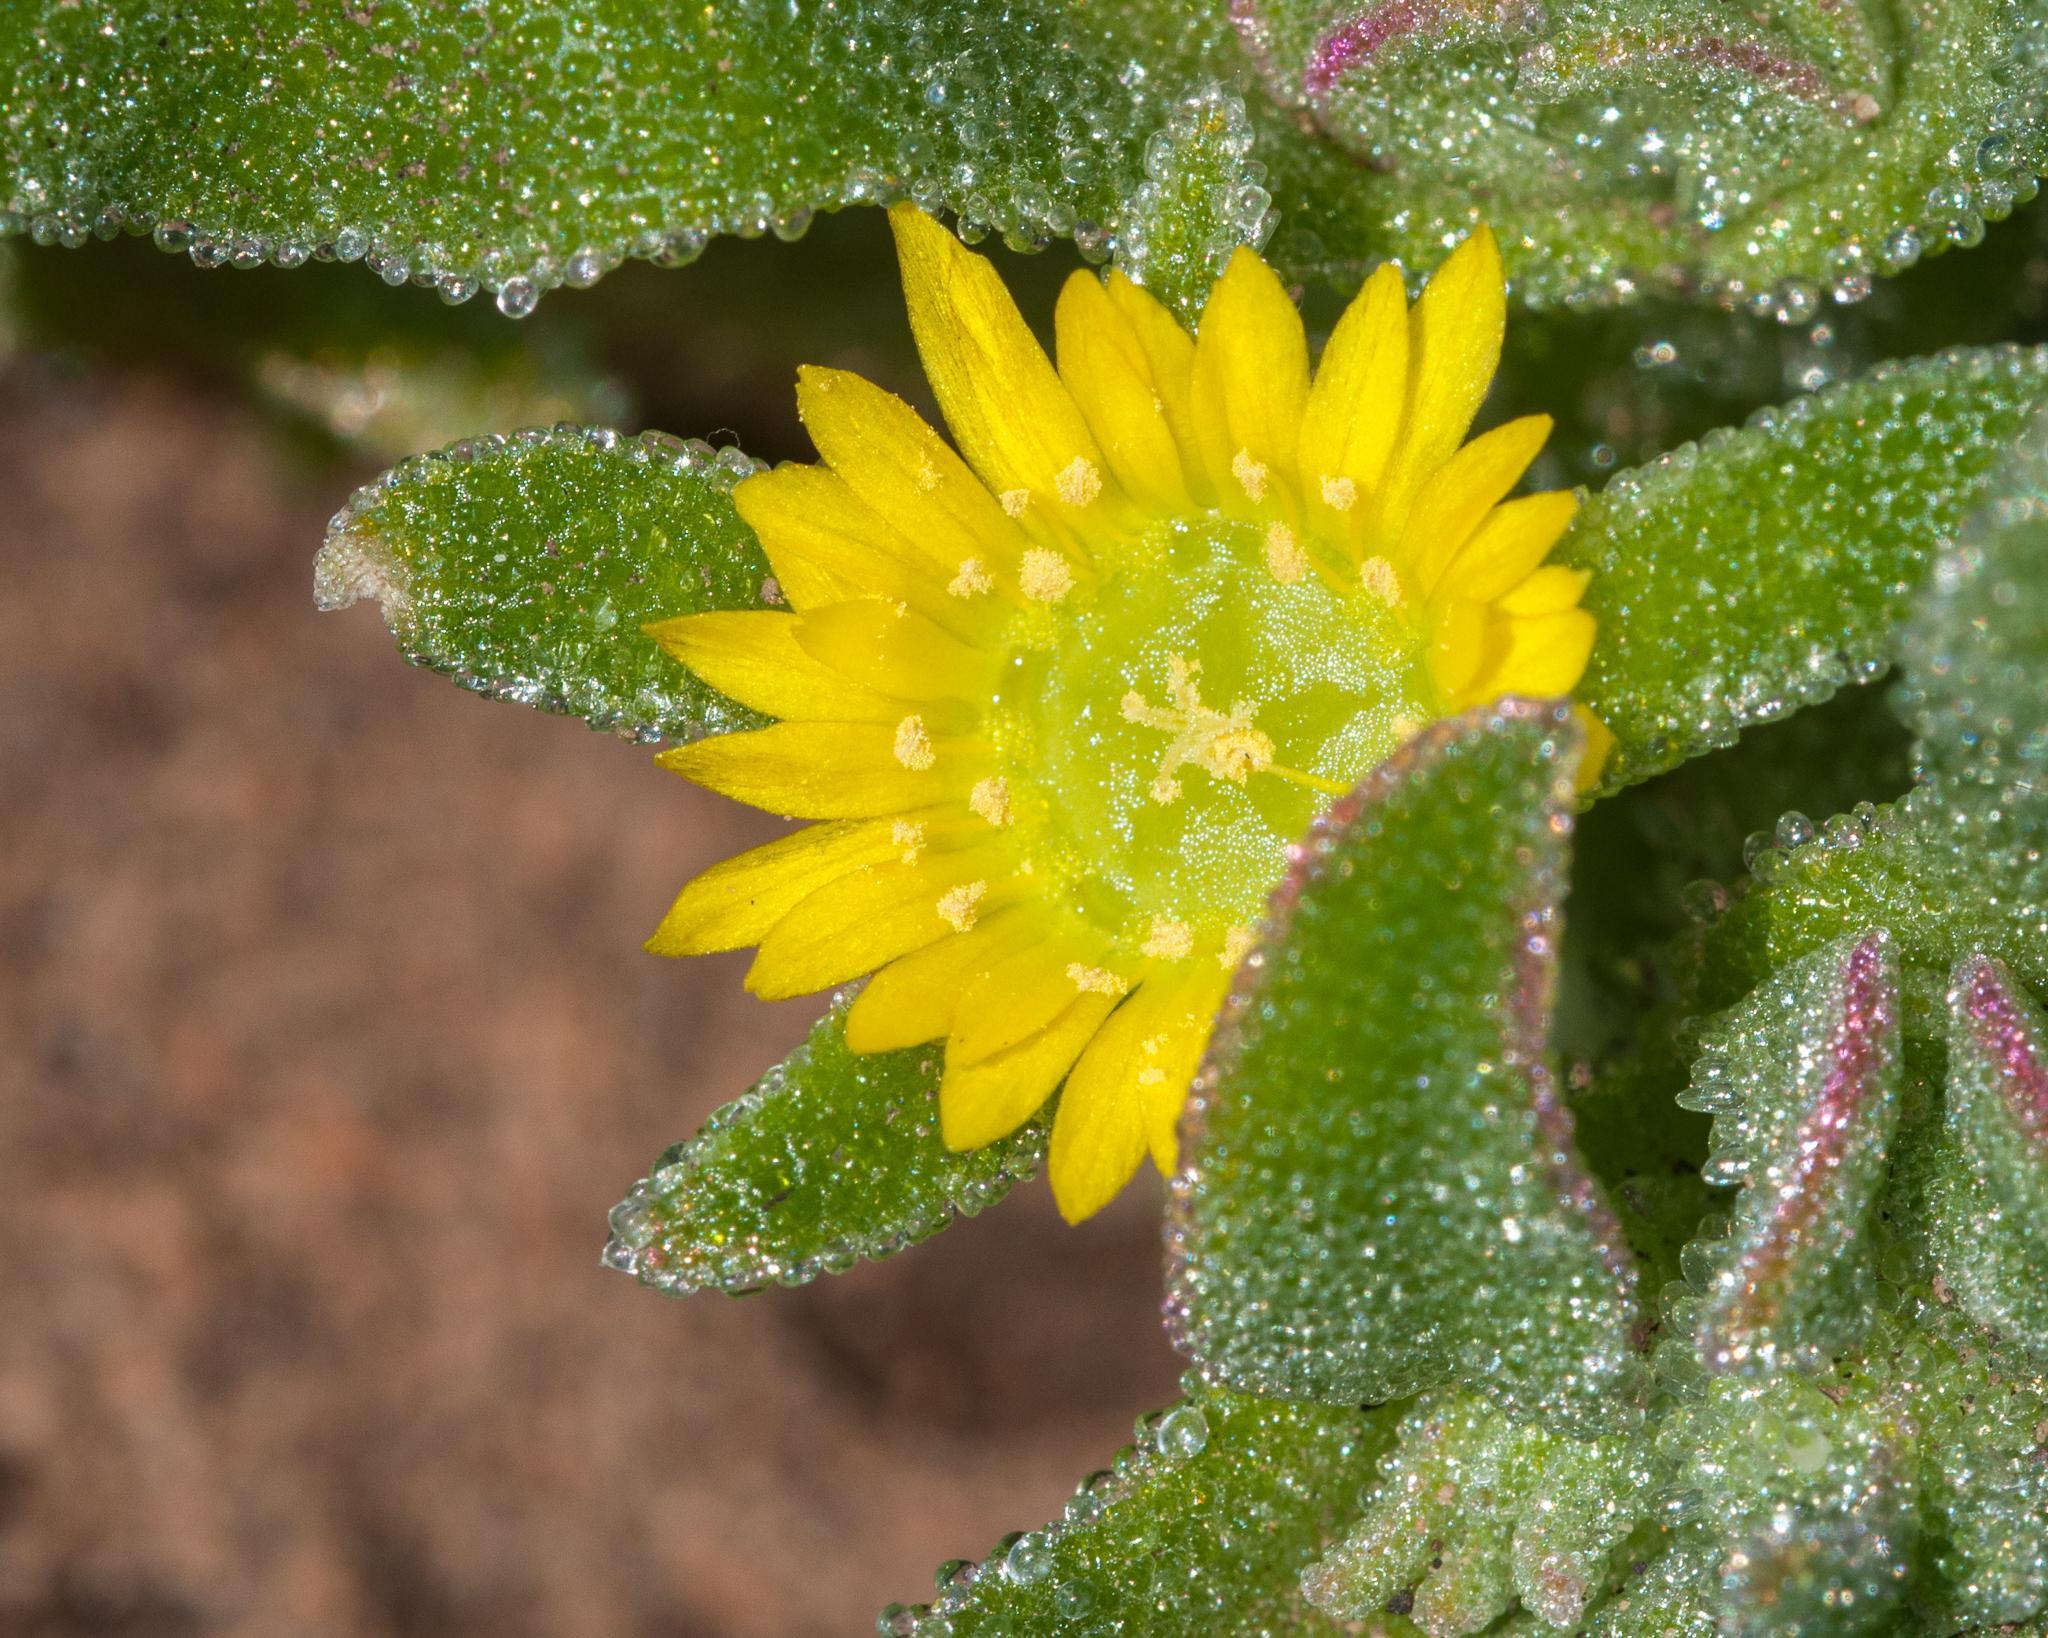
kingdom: Plantae
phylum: Tracheophyta
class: Magnoliopsida
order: Caryophyllales
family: Aizoaceae
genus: Cleretum
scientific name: Cleretum papulosum
